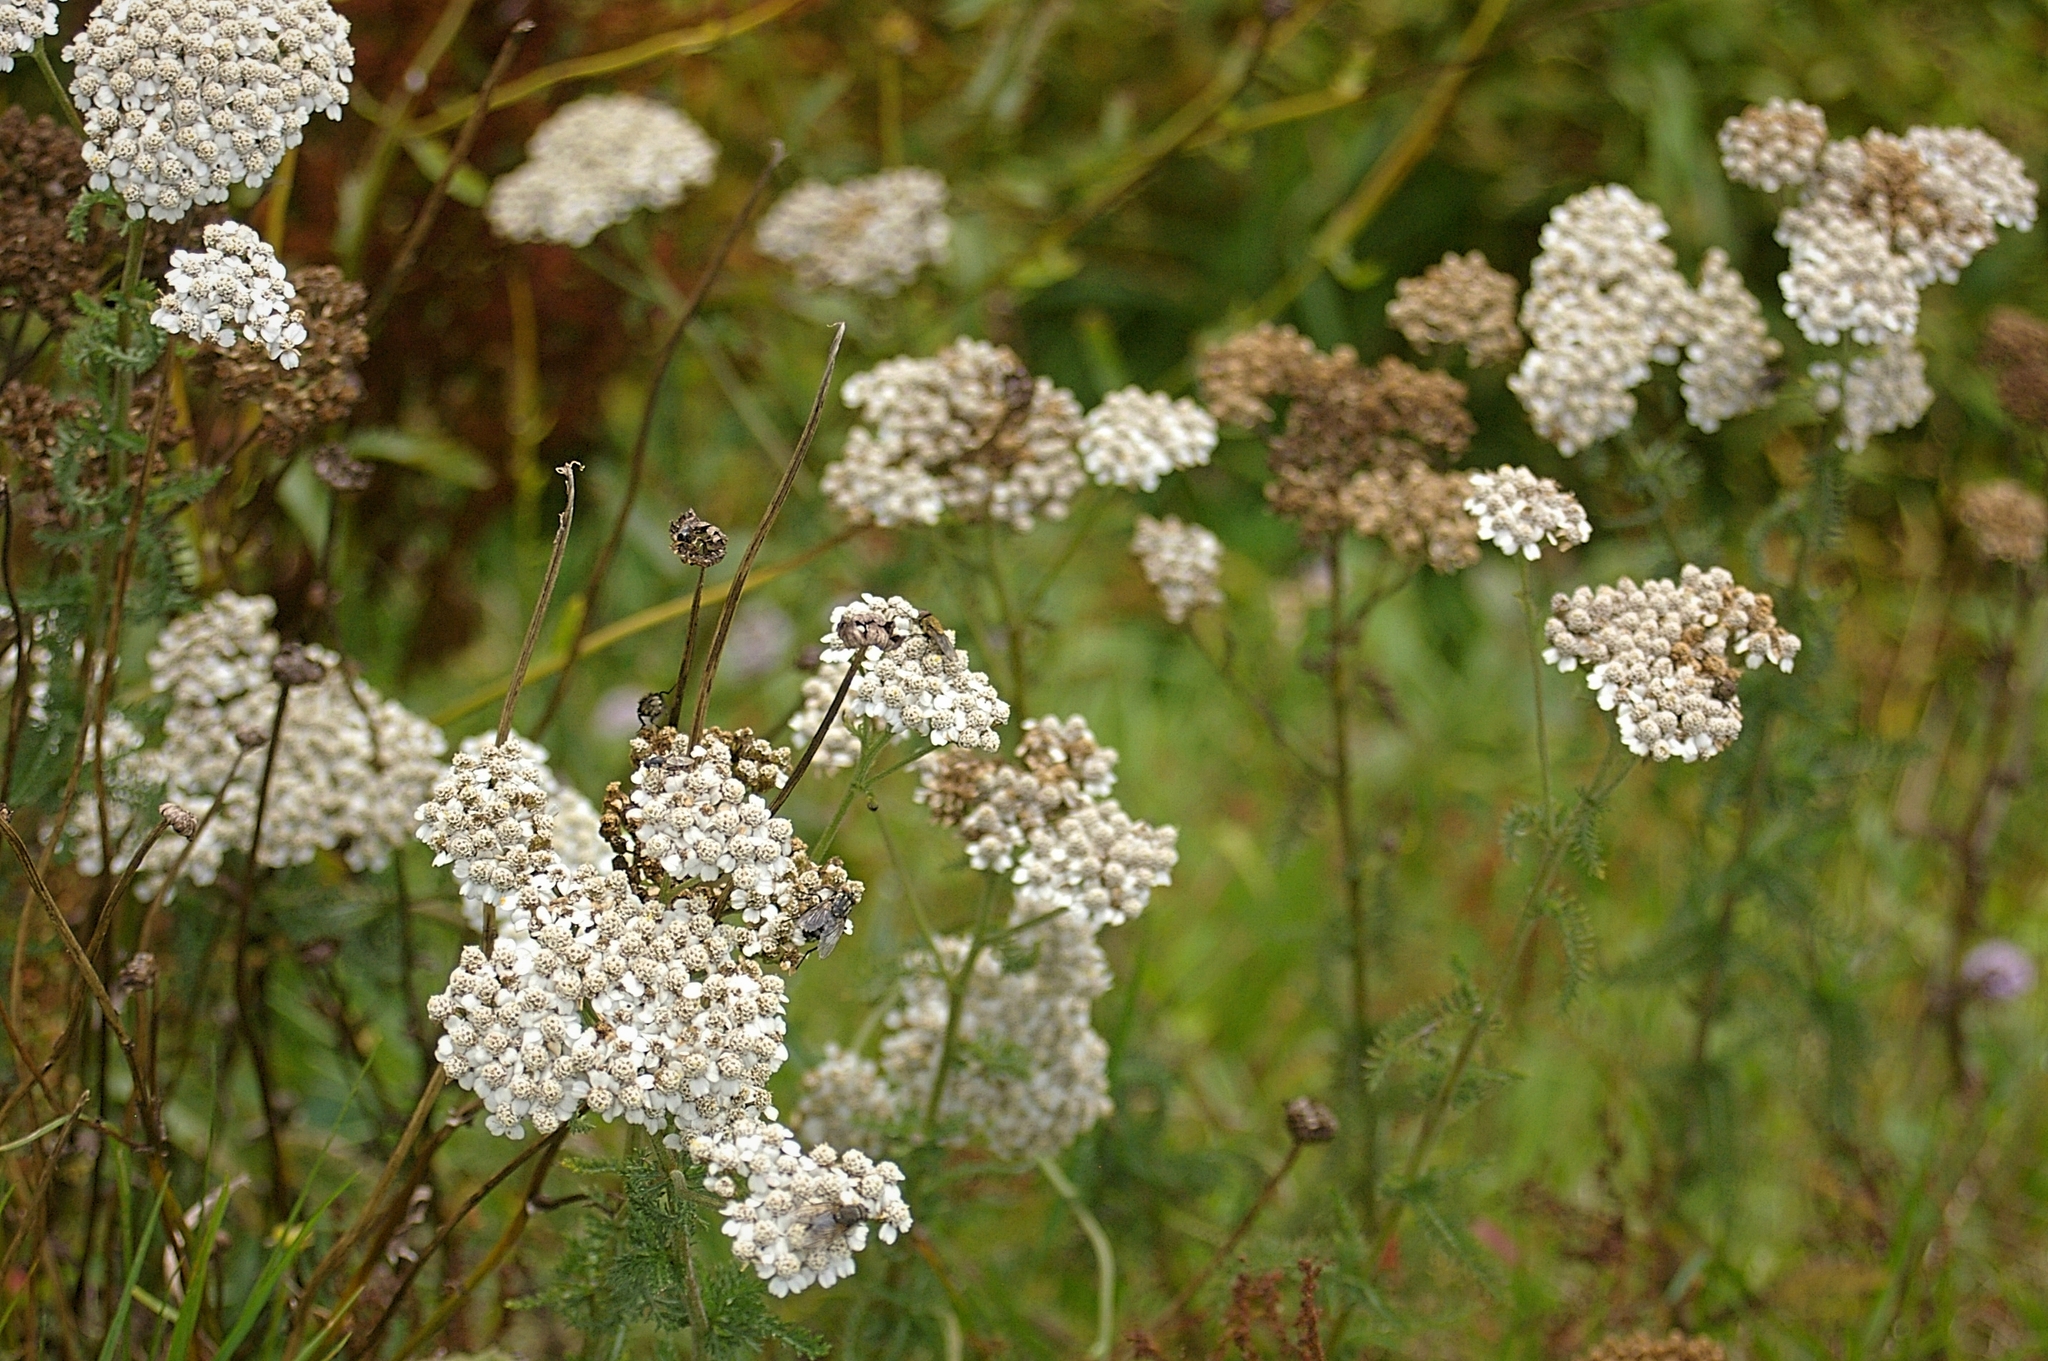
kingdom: Plantae
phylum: Tracheophyta
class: Magnoliopsida
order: Asterales
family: Asteraceae
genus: Achillea
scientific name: Achillea millefolium
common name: Yarrow
